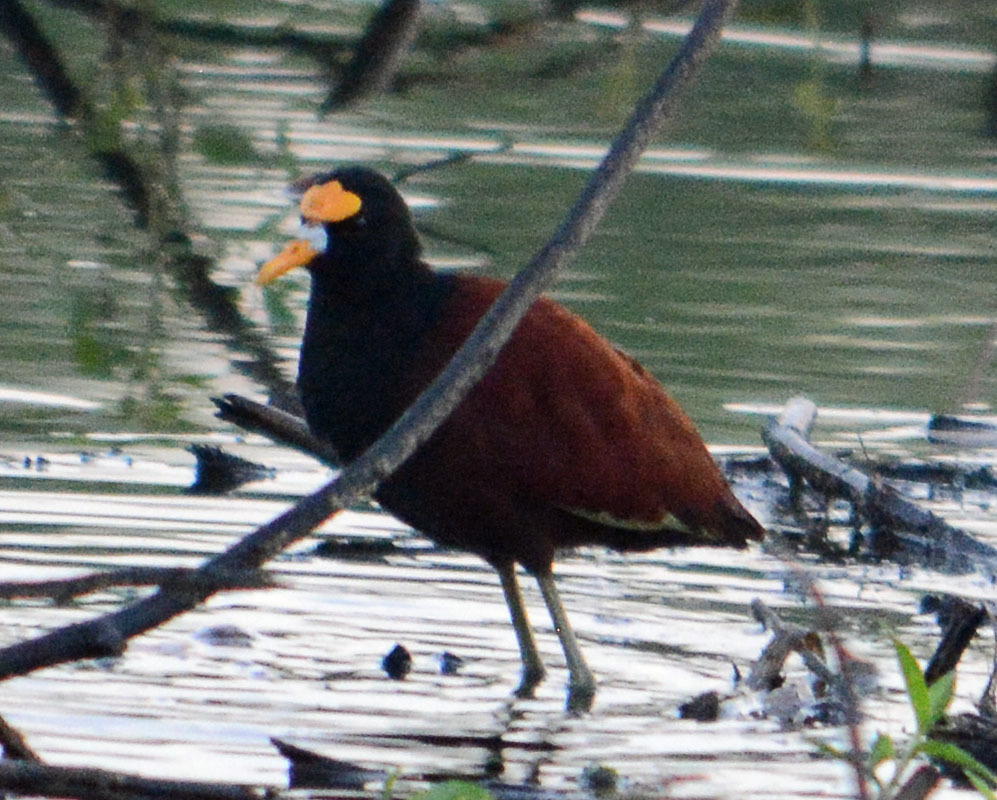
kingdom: Animalia
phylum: Chordata
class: Aves
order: Charadriiformes
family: Jacanidae
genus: Jacana
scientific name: Jacana spinosa
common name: Northern jacana
